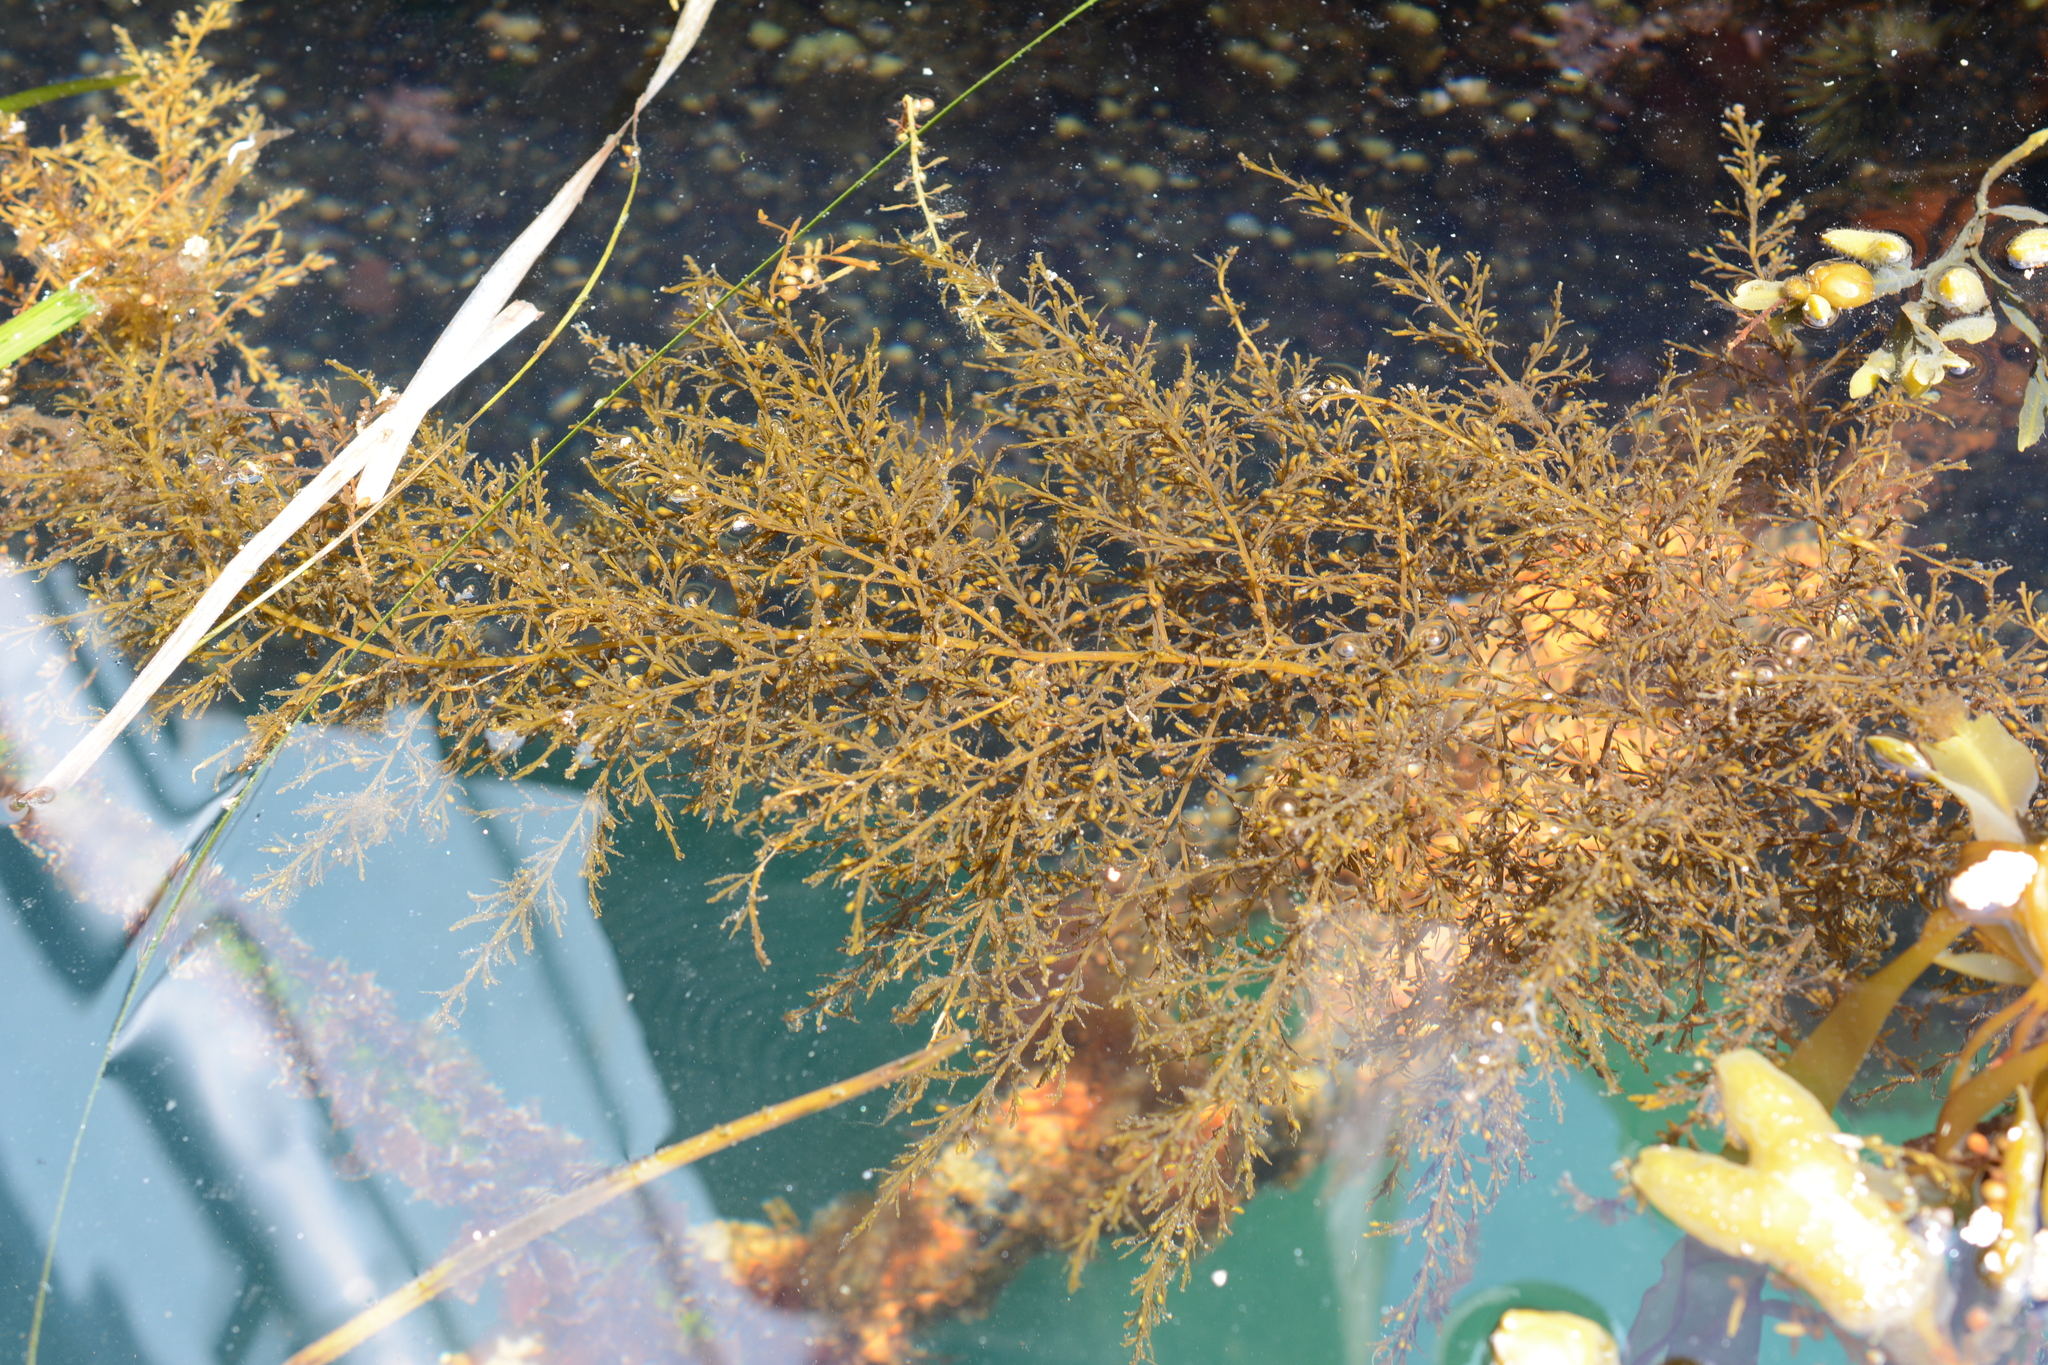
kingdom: Chromista
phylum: Ochrophyta
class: Phaeophyceae
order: Fucales
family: Sargassaceae
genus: Sargassum
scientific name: Sargassum muticum
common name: Japweed
